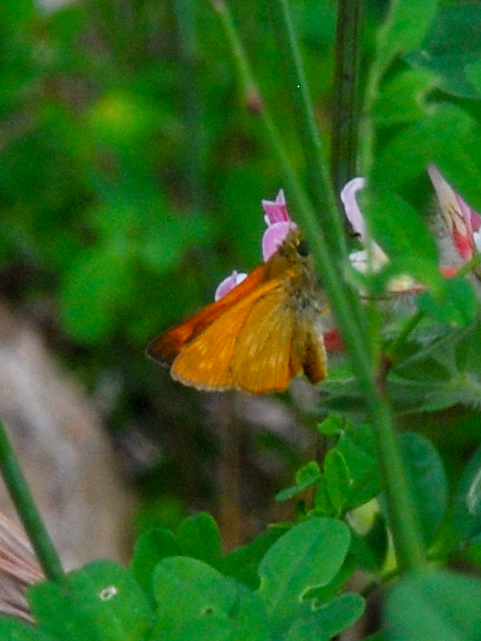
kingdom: Animalia
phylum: Arthropoda
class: Insecta
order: Lepidoptera
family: Hesperiidae
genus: Ochlodes
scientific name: Ochlodes venata
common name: Large skipper
